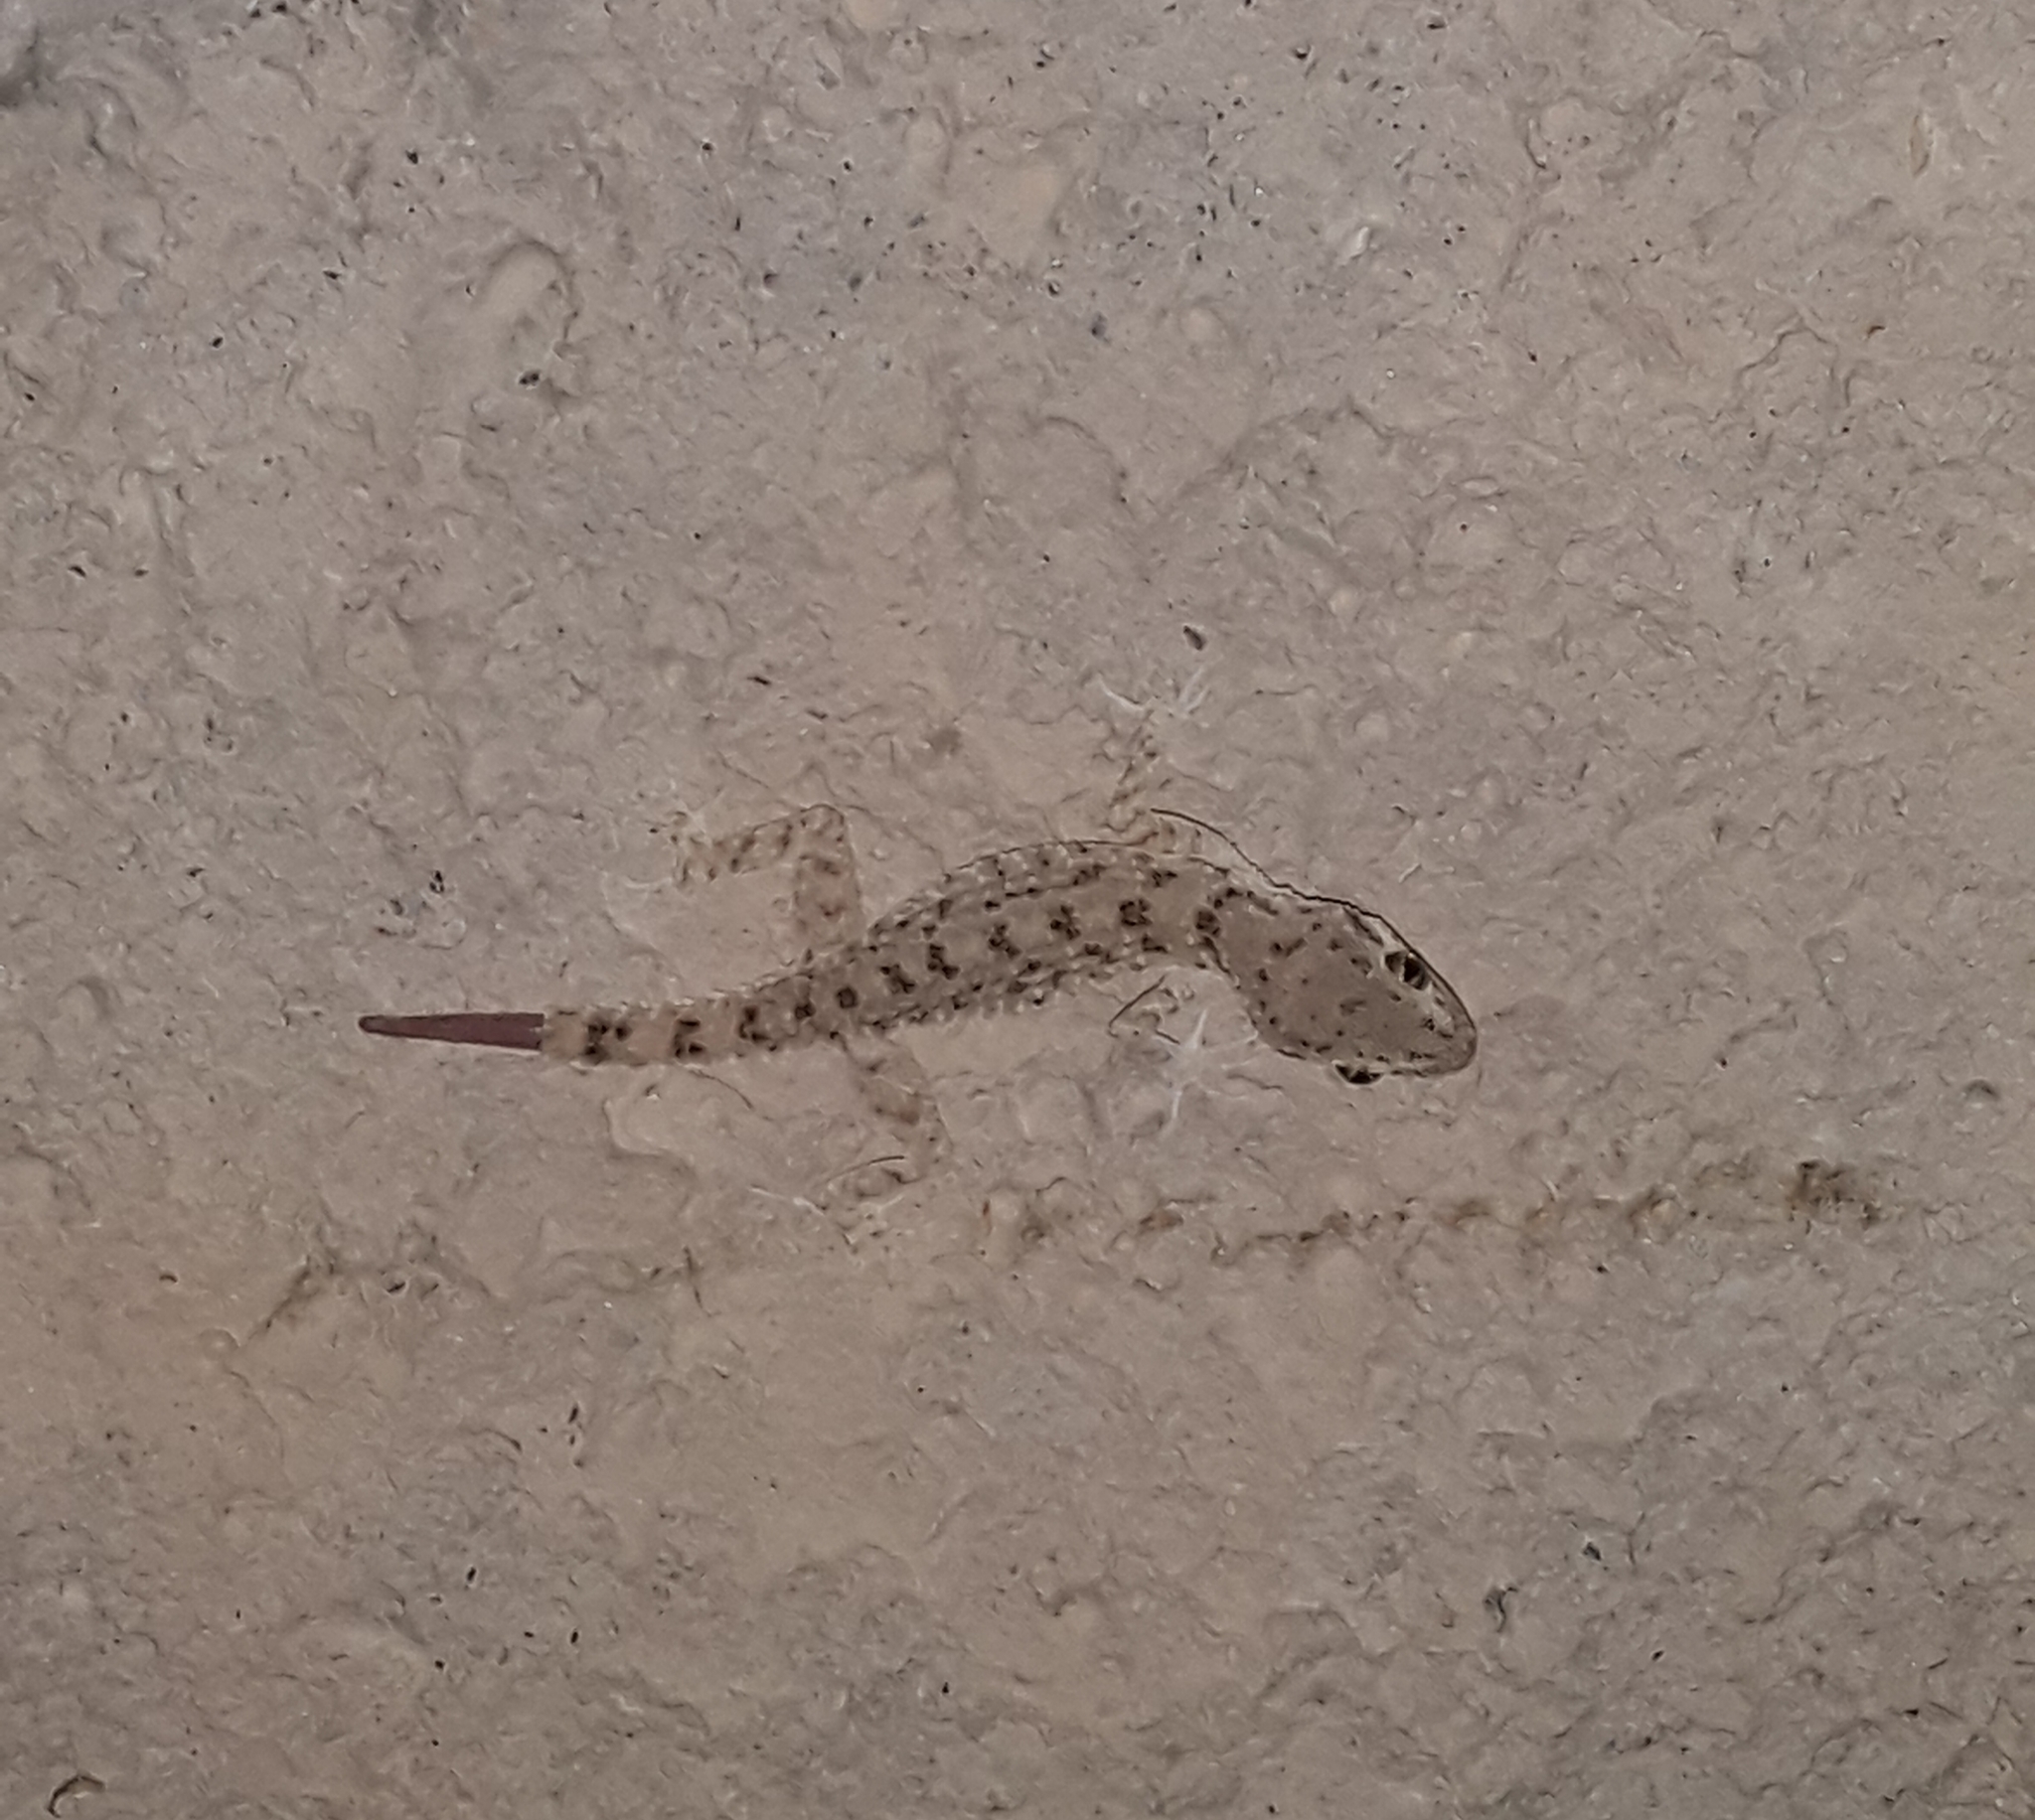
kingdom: Animalia
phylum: Chordata
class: Squamata
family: Gekkonidae
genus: Cyrtopodion
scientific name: Cyrtopodion scabrum
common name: Rough-tailed gecko
